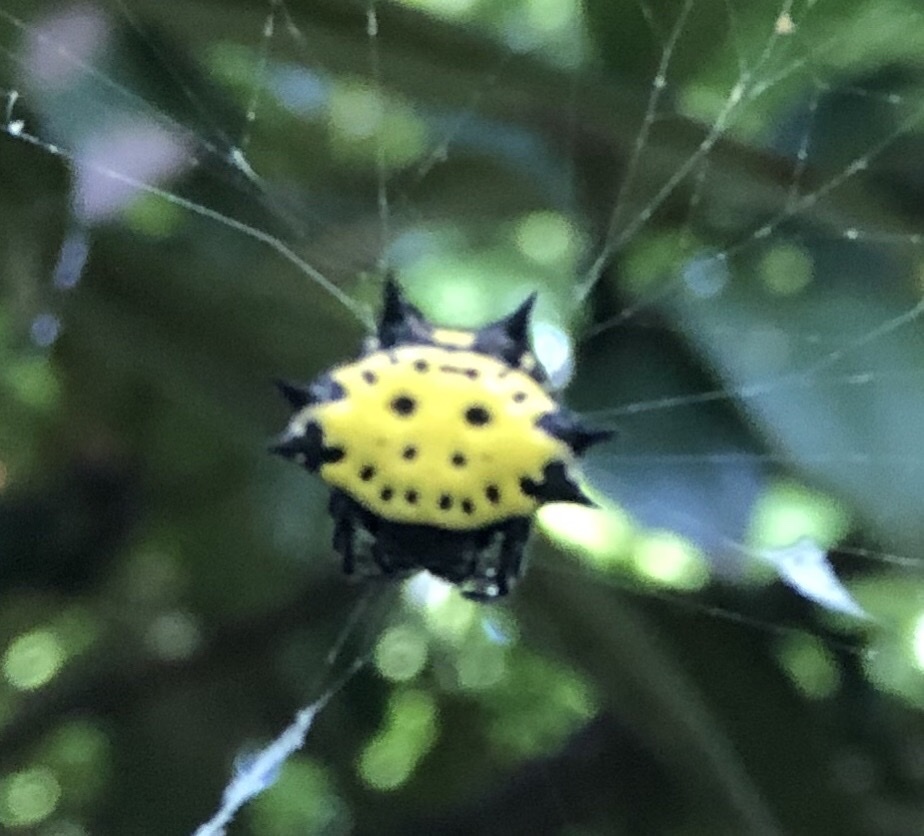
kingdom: Animalia
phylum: Arthropoda
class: Arachnida
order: Araneae
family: Araneidae
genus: Gasteracantha
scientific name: Gasteracantha cancriformis
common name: Orb weavers
